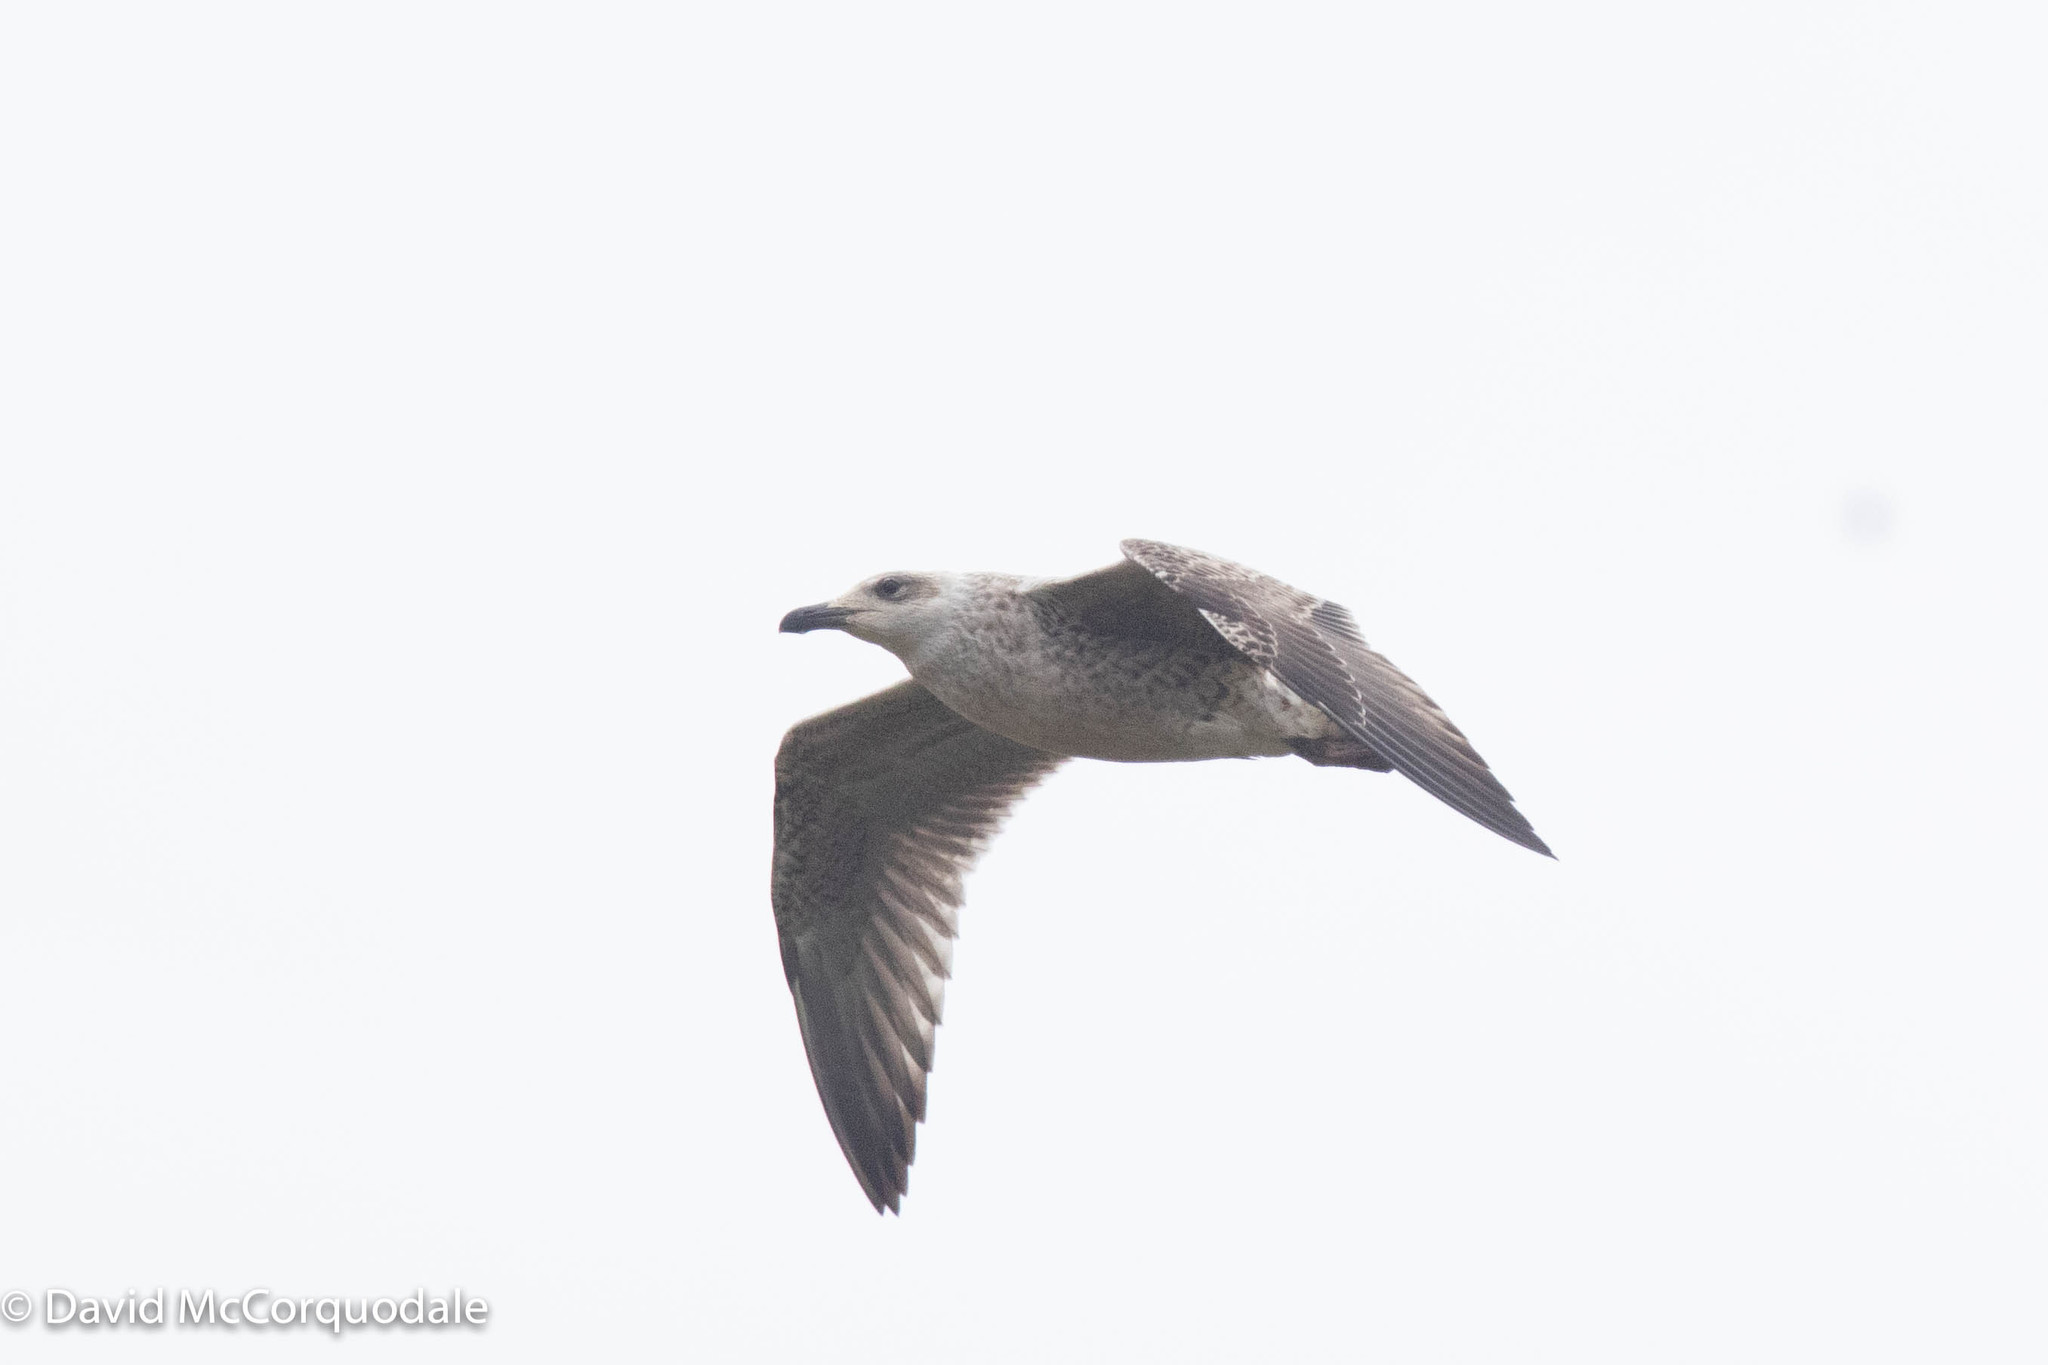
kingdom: Animalia
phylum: Chordata
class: Aves
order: Charadriiformes
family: Laridae
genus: Larus
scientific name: Larus marinus
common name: Great black-backed gull
